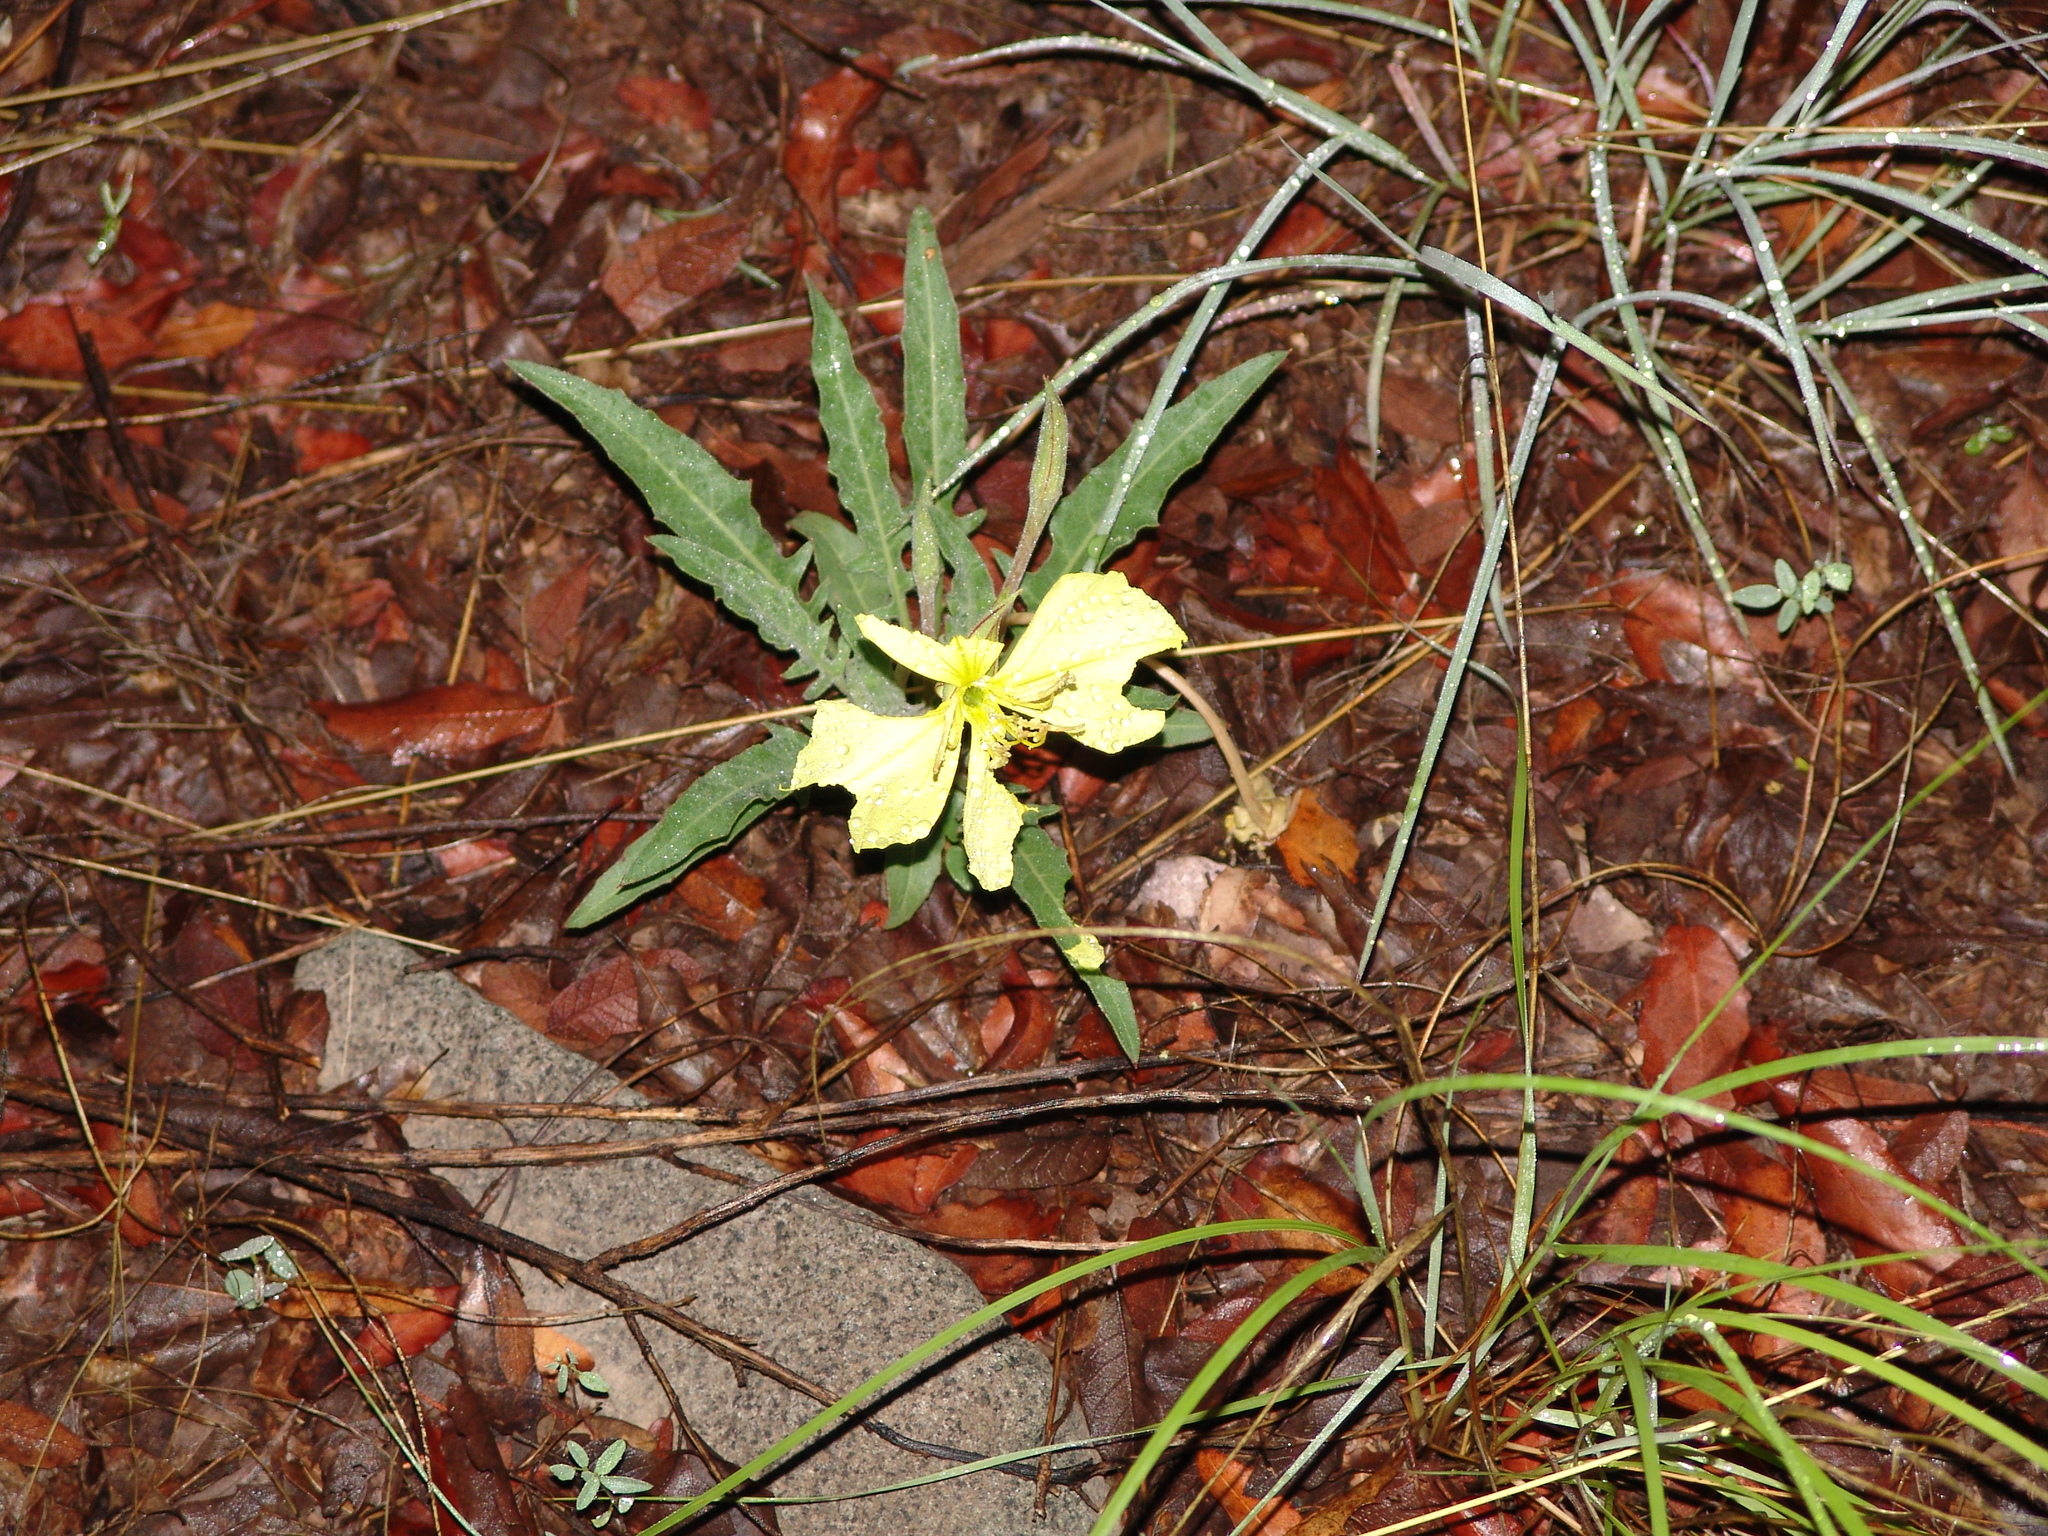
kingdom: Plantae
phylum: Tracheophyta
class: Magnoliopsida
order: Myrtales
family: Onagraceae
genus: Oenothera
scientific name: Oenothera flava
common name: Long-tubed evening-primrose
